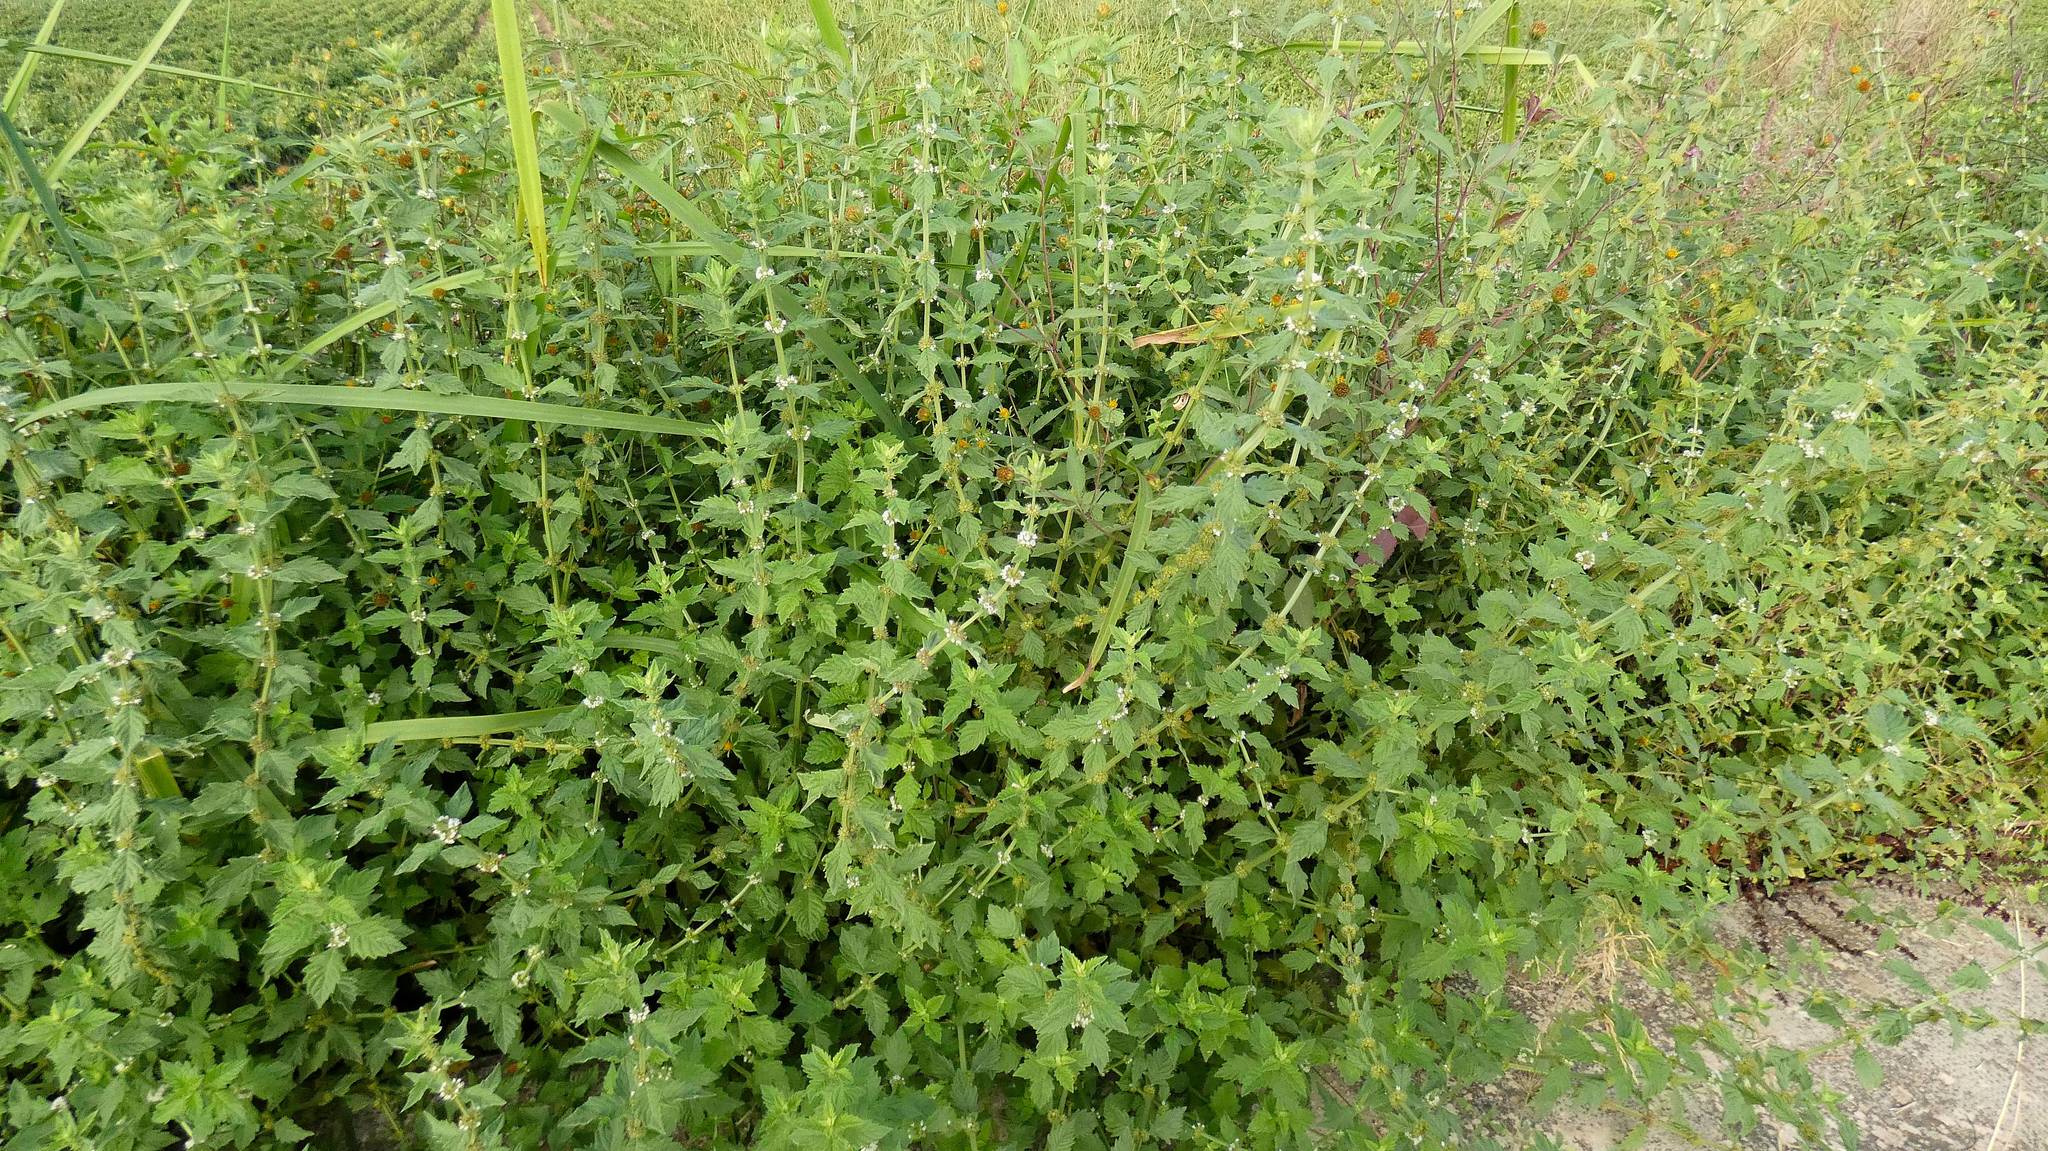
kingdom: Plantae
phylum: Tracheophyta
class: Magnoliopsida
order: Lamiales
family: Lamiaceae
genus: Lycopus
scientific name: Lycopus europaeus
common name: European bugleweed
